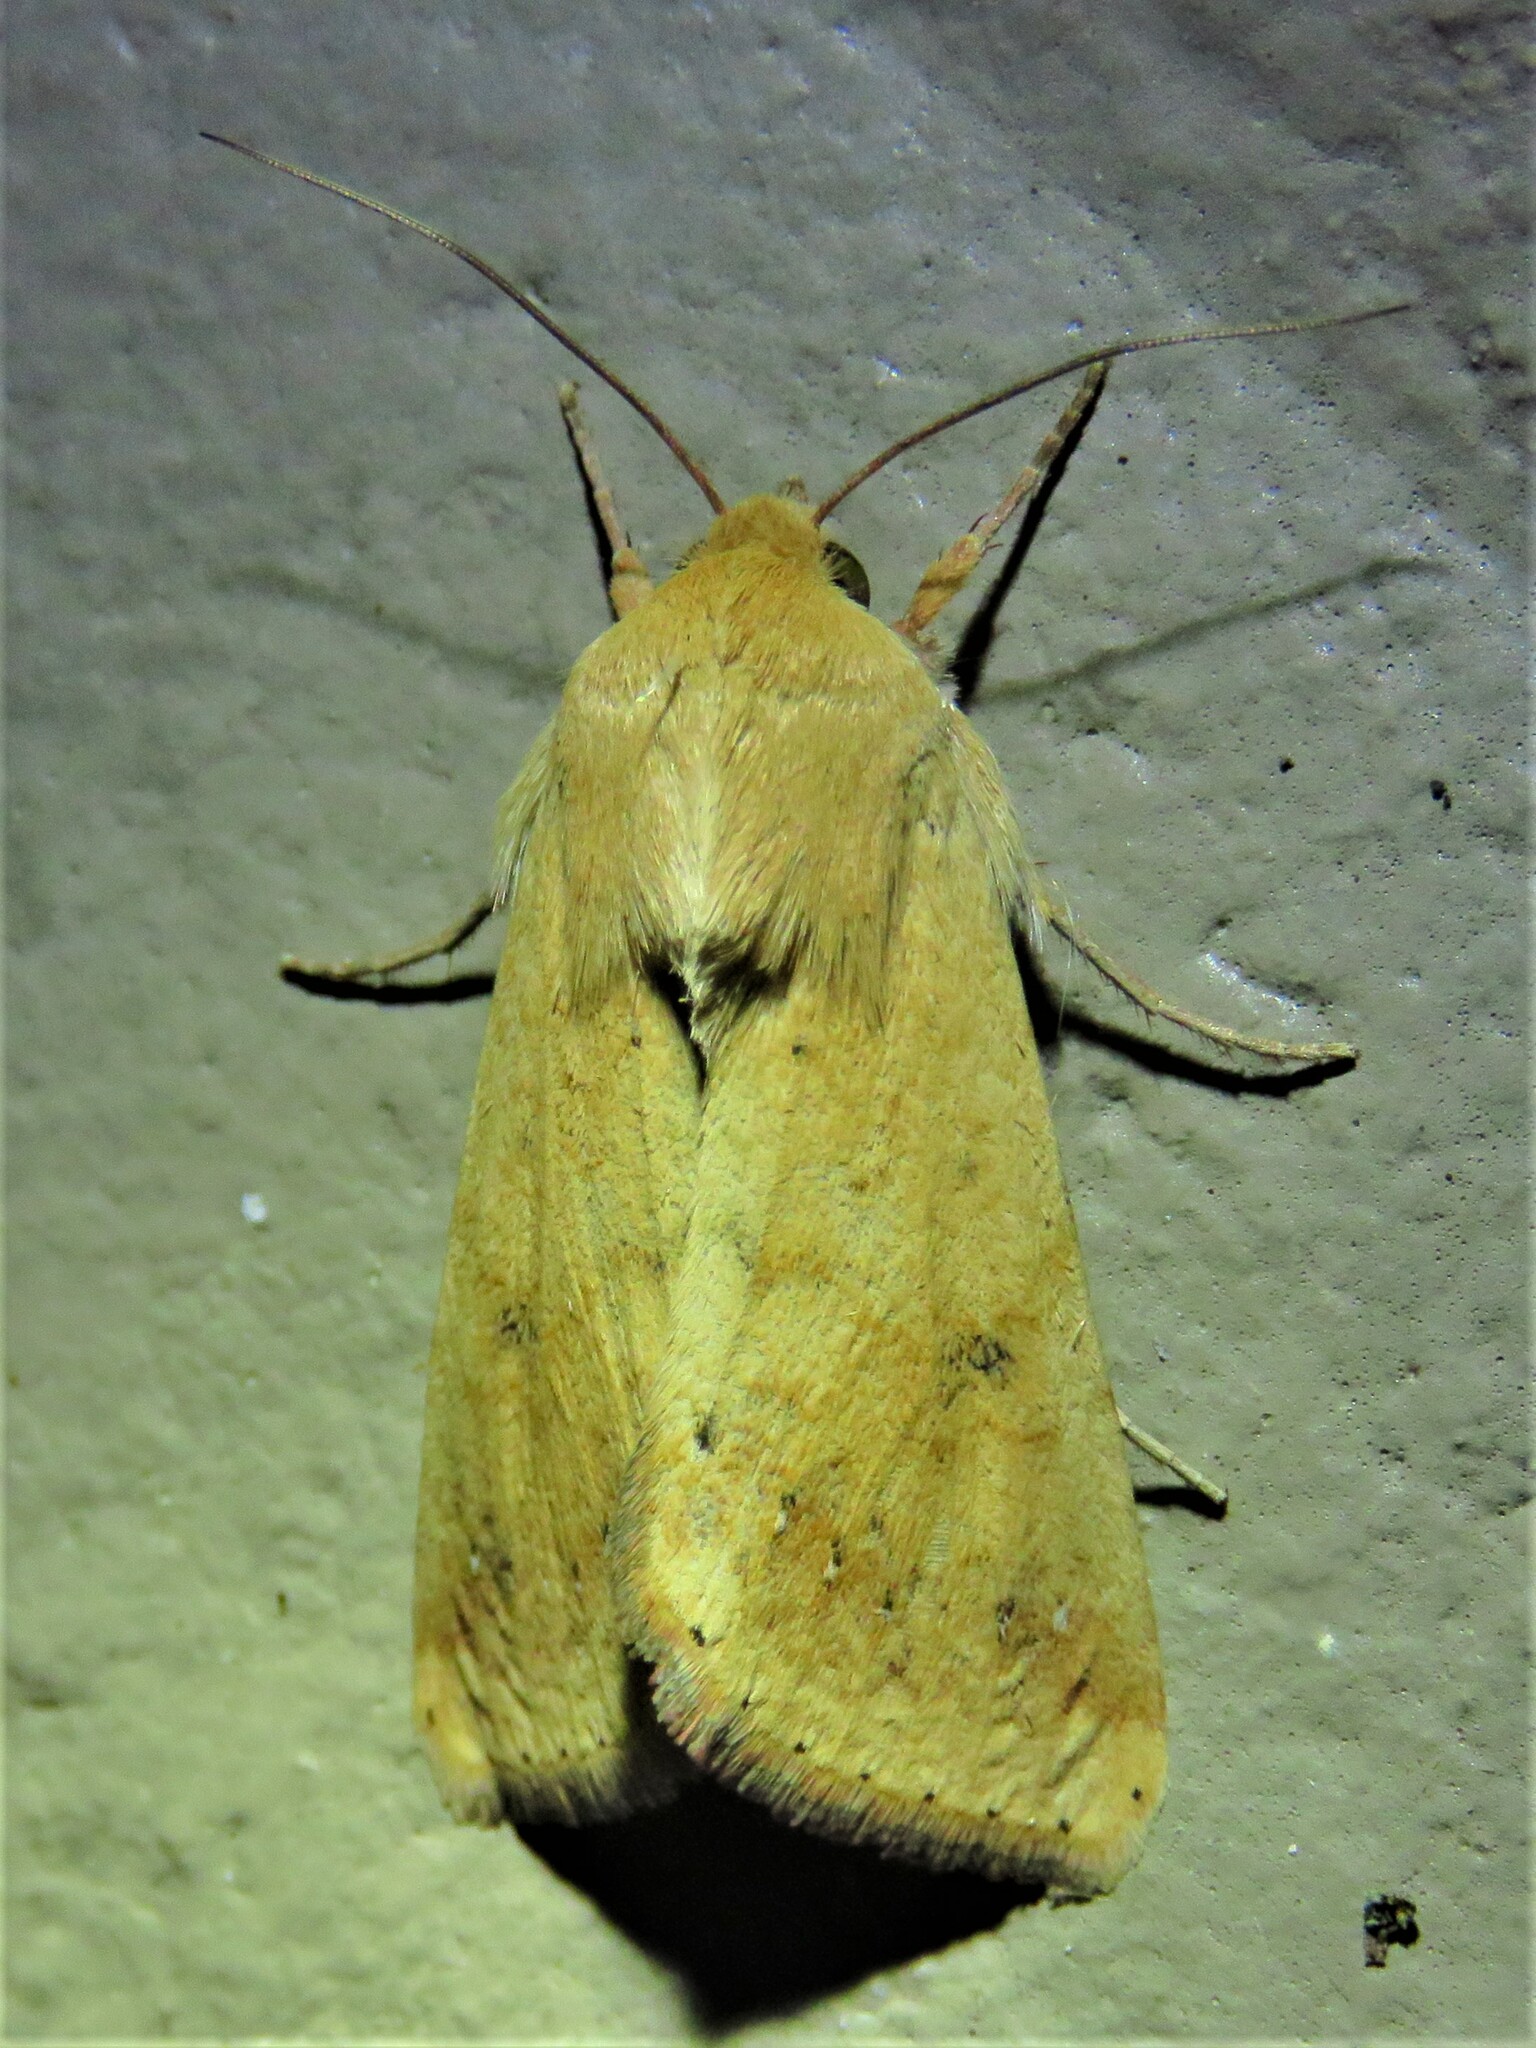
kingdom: Animalia
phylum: Arthropoda
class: Insecta
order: Lepidoptera
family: Noctuidae
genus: Helicoverpa
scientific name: Helicoverpa zea
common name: Bollworm
